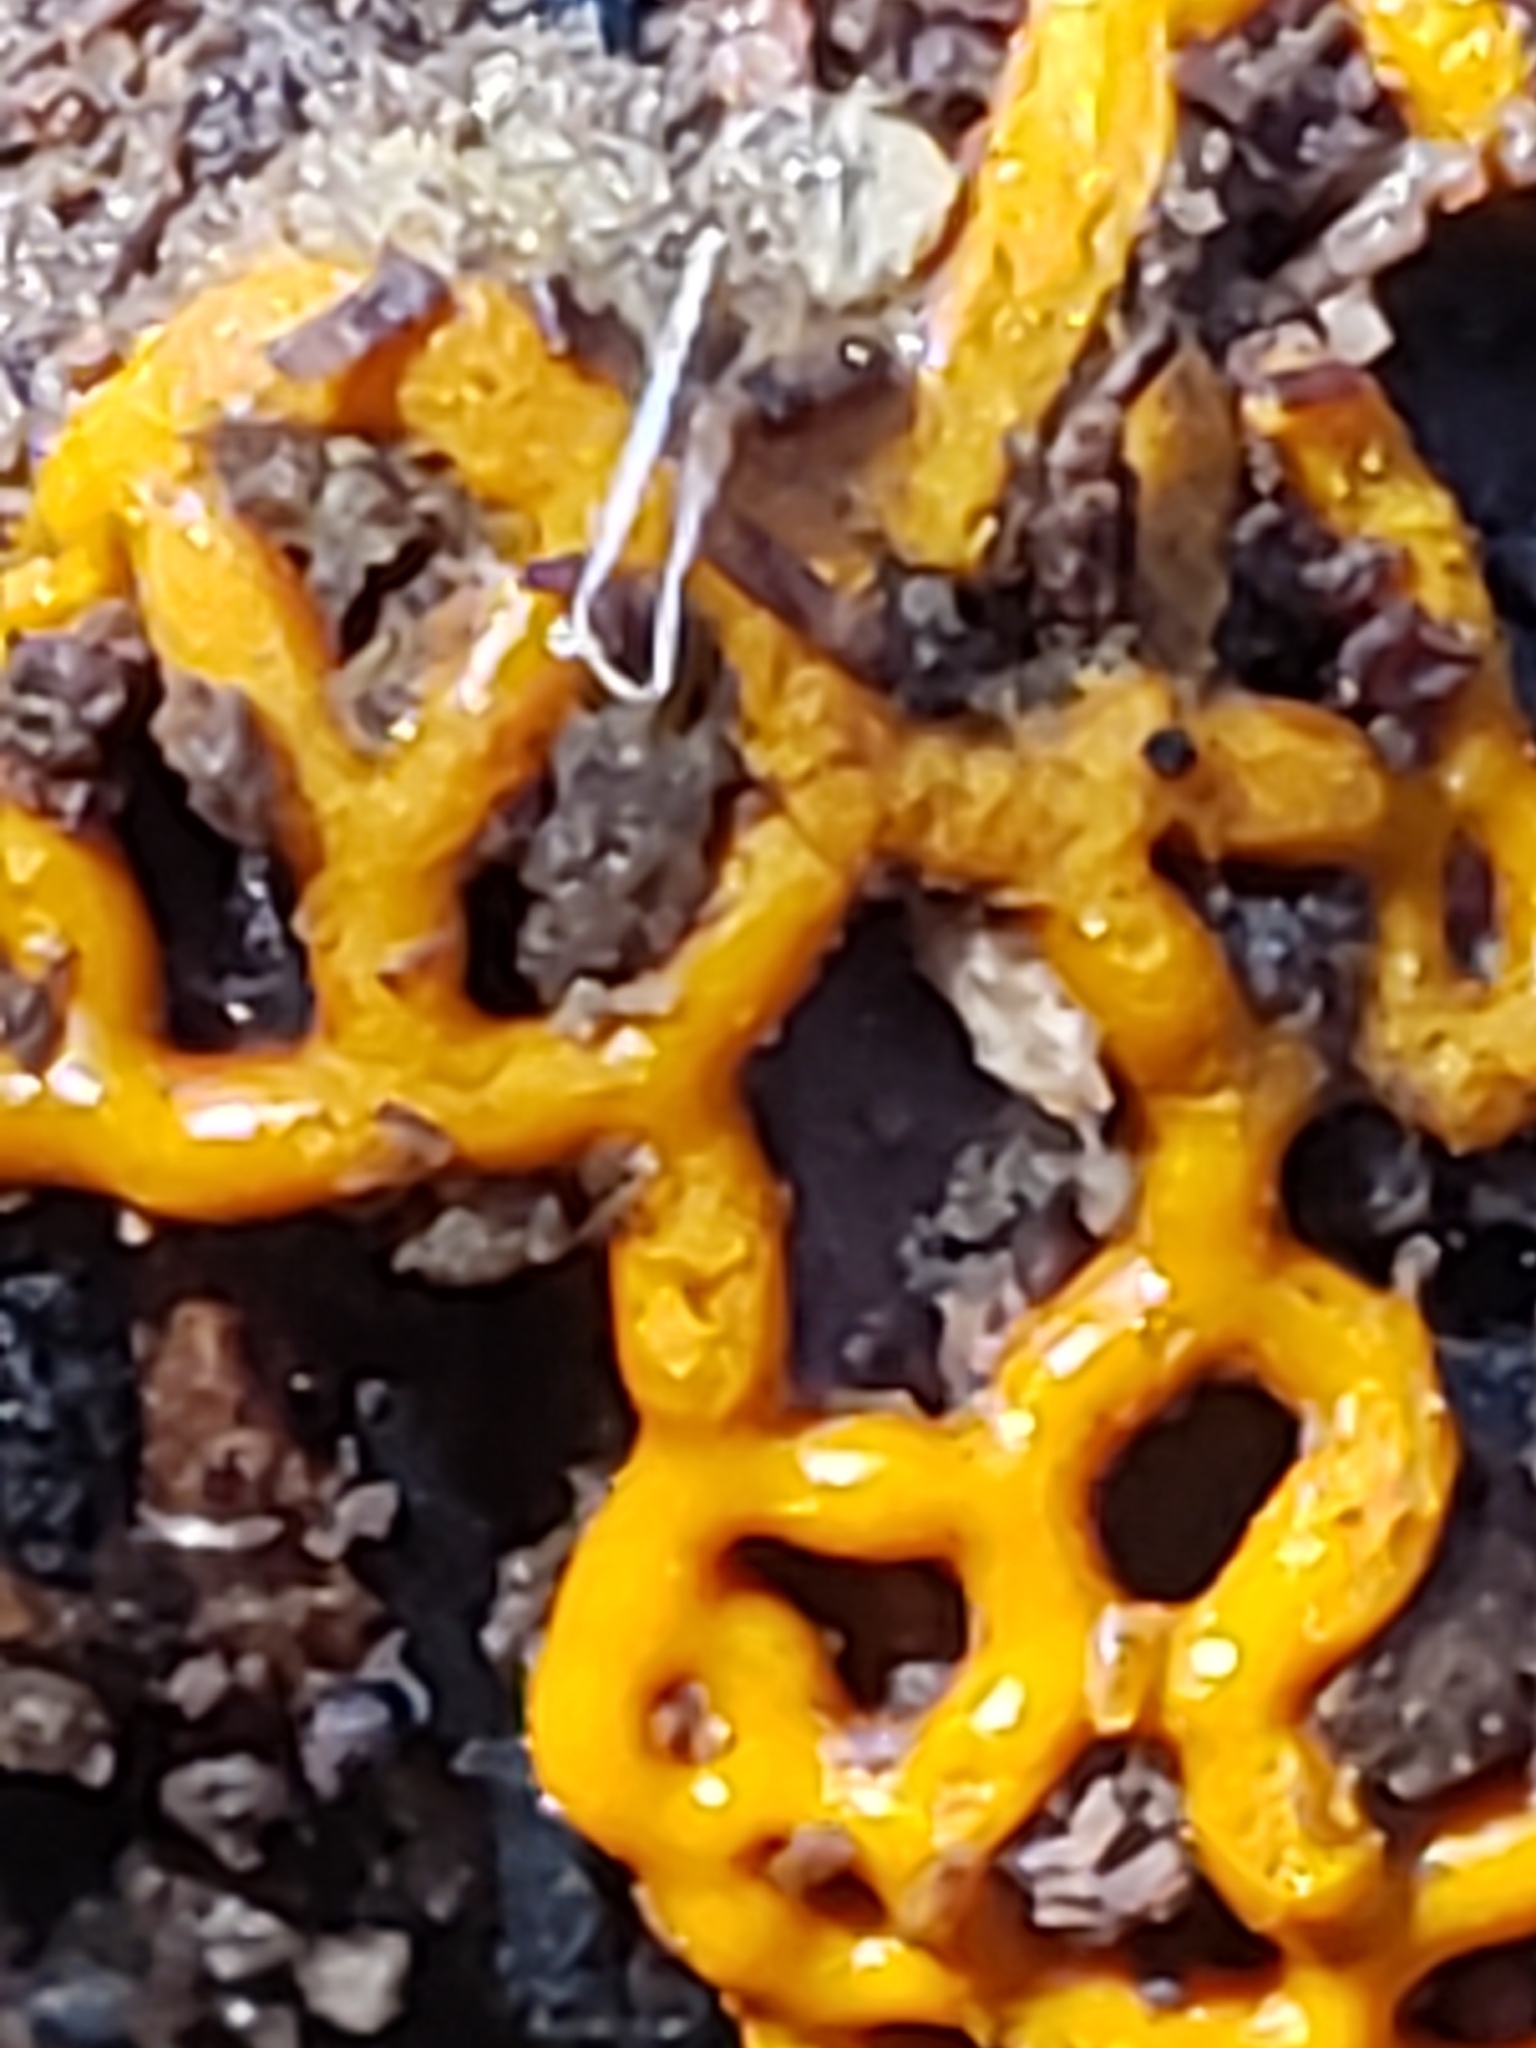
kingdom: Protozoa
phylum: Mycetozoa
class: Myxomycetes
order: Trichiales
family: Arcyriaceae
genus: Hemitrichia
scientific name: Hemitrichia serpula
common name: Pretzel slime mold
